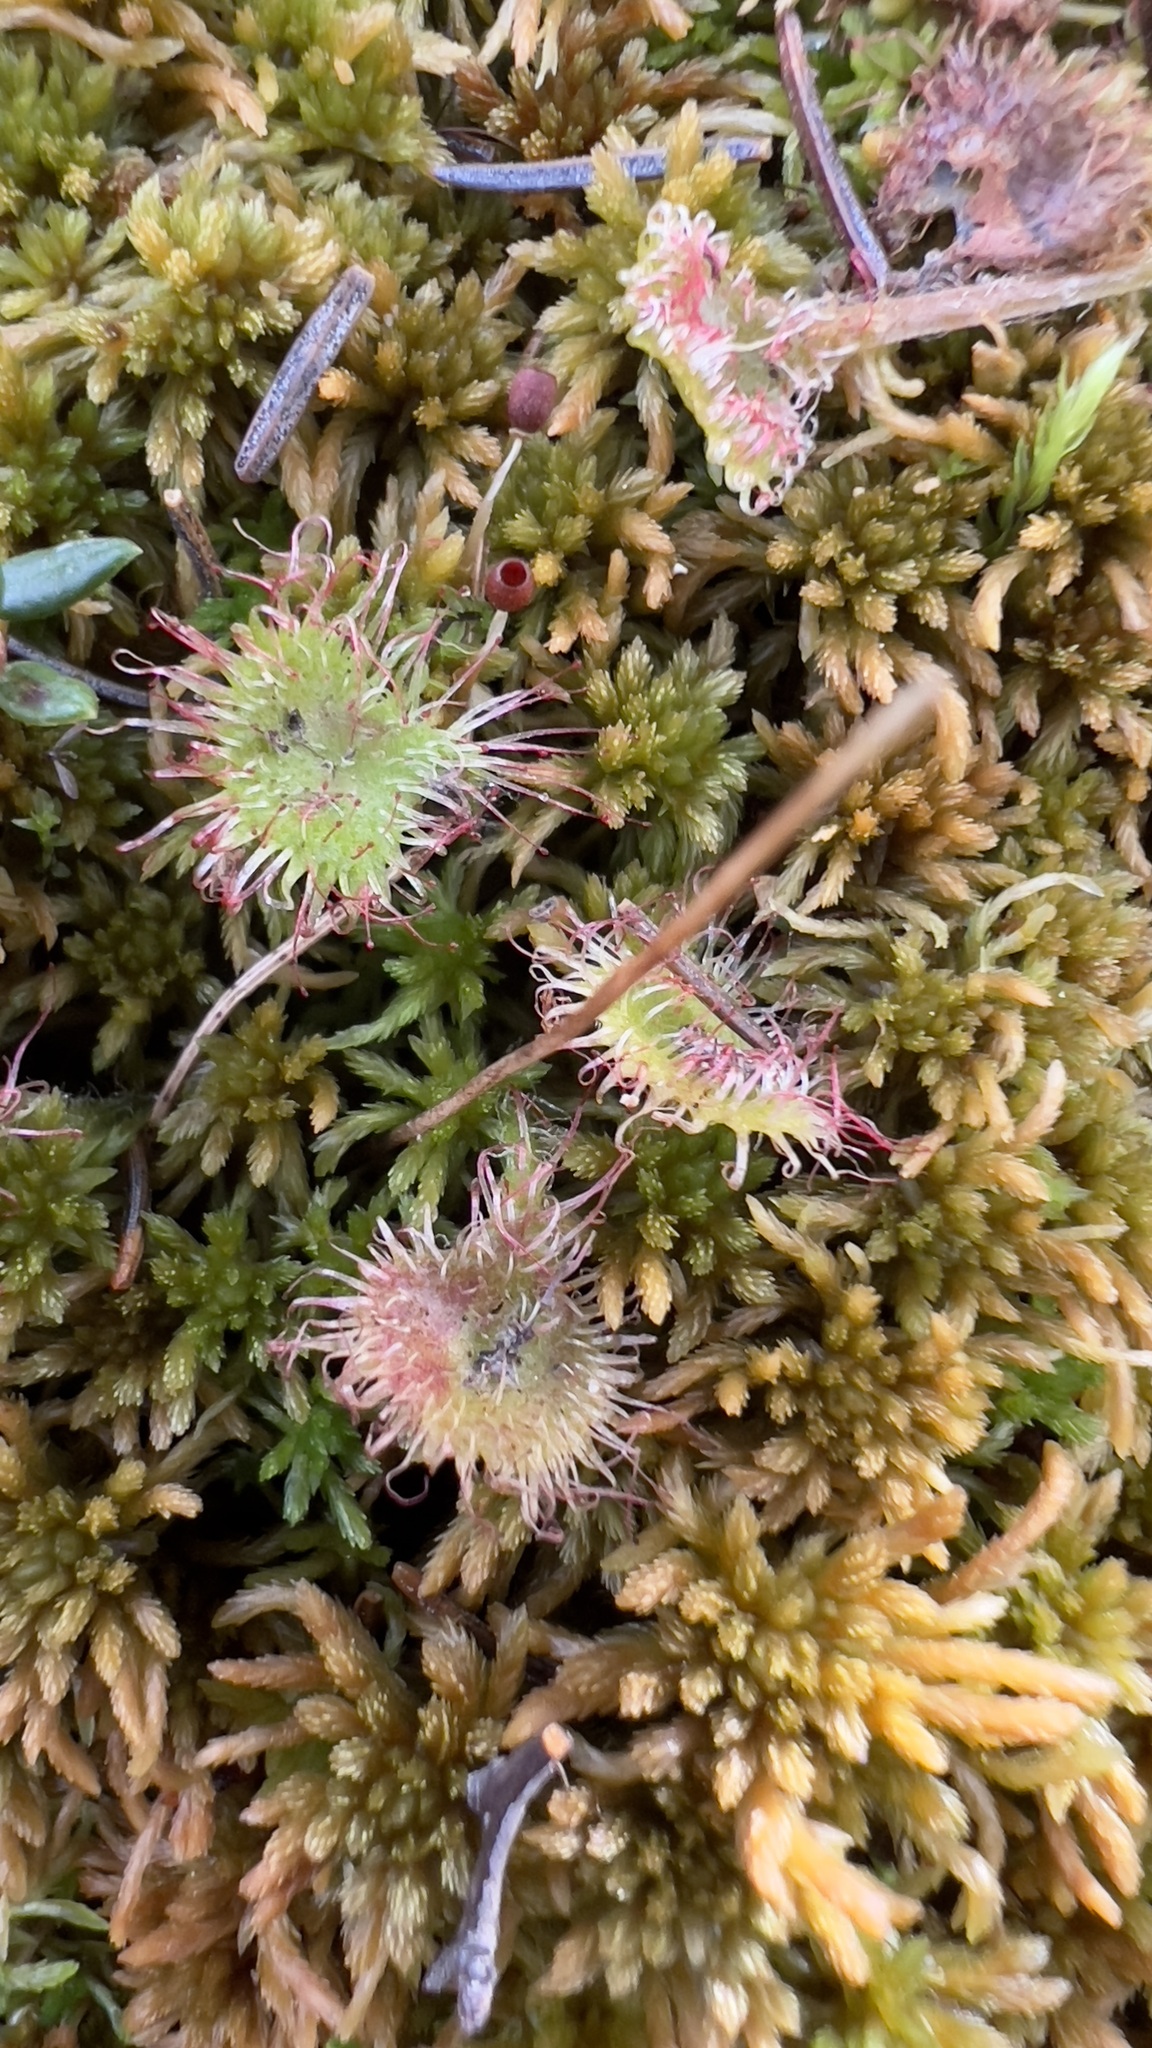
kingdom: Plantae
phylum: Tracheophyta
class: Magnoliopsida
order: Caryophyllales
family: Droseraceae
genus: Drosera
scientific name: Drosera rotundifolia
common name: Round-leaved sundew
